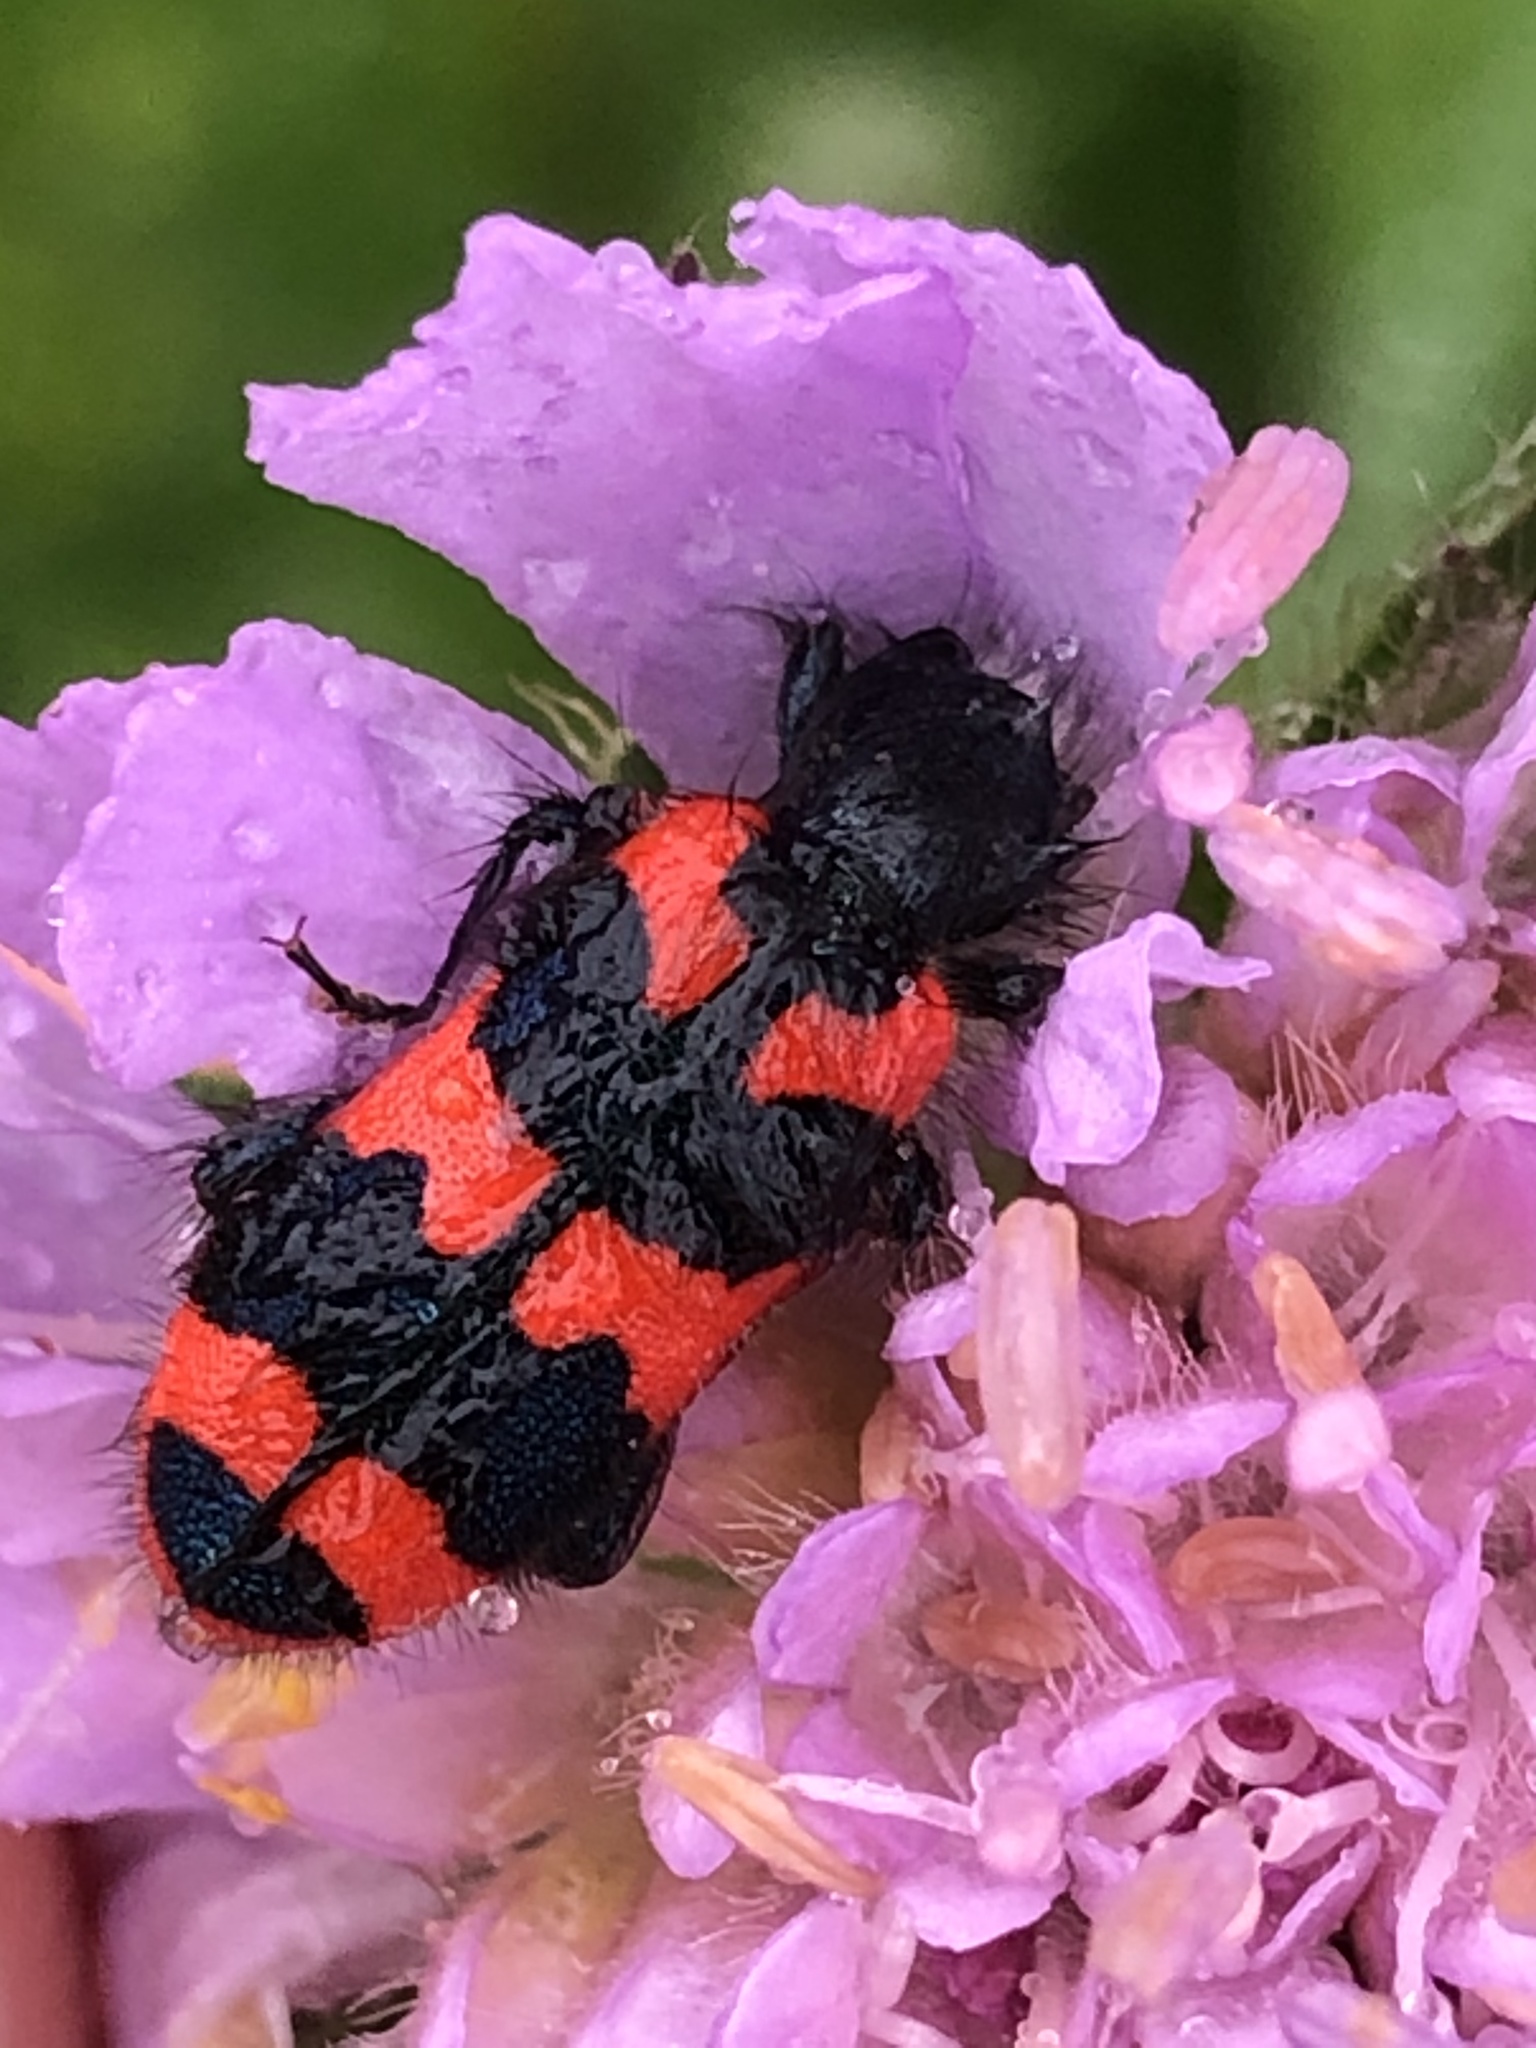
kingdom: Animalia
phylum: Arthropoda
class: Insecta
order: Coleoptera
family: Cleridae
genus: Trichodes
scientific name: Trichodes alvearius
